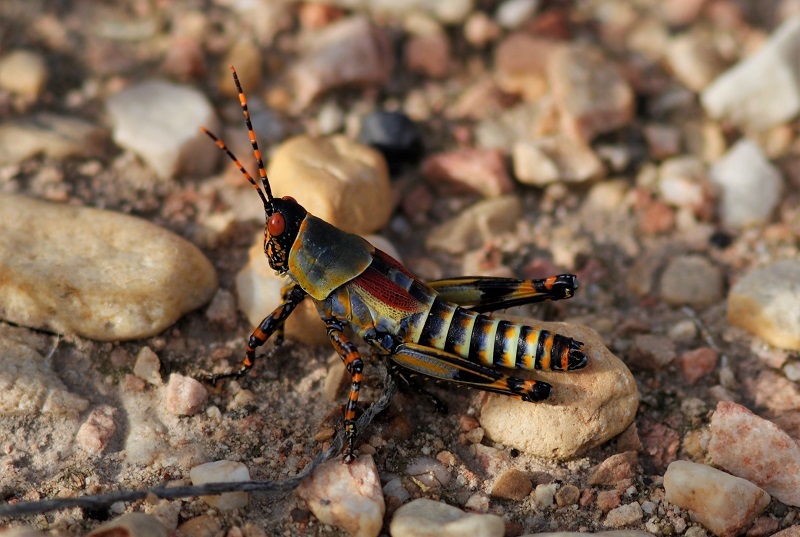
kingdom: Animalia
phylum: Arthropoda
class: Insecta
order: Orthoptera
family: Pyrgomorphidae
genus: Zonocerus
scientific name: Zonocerus elegans
